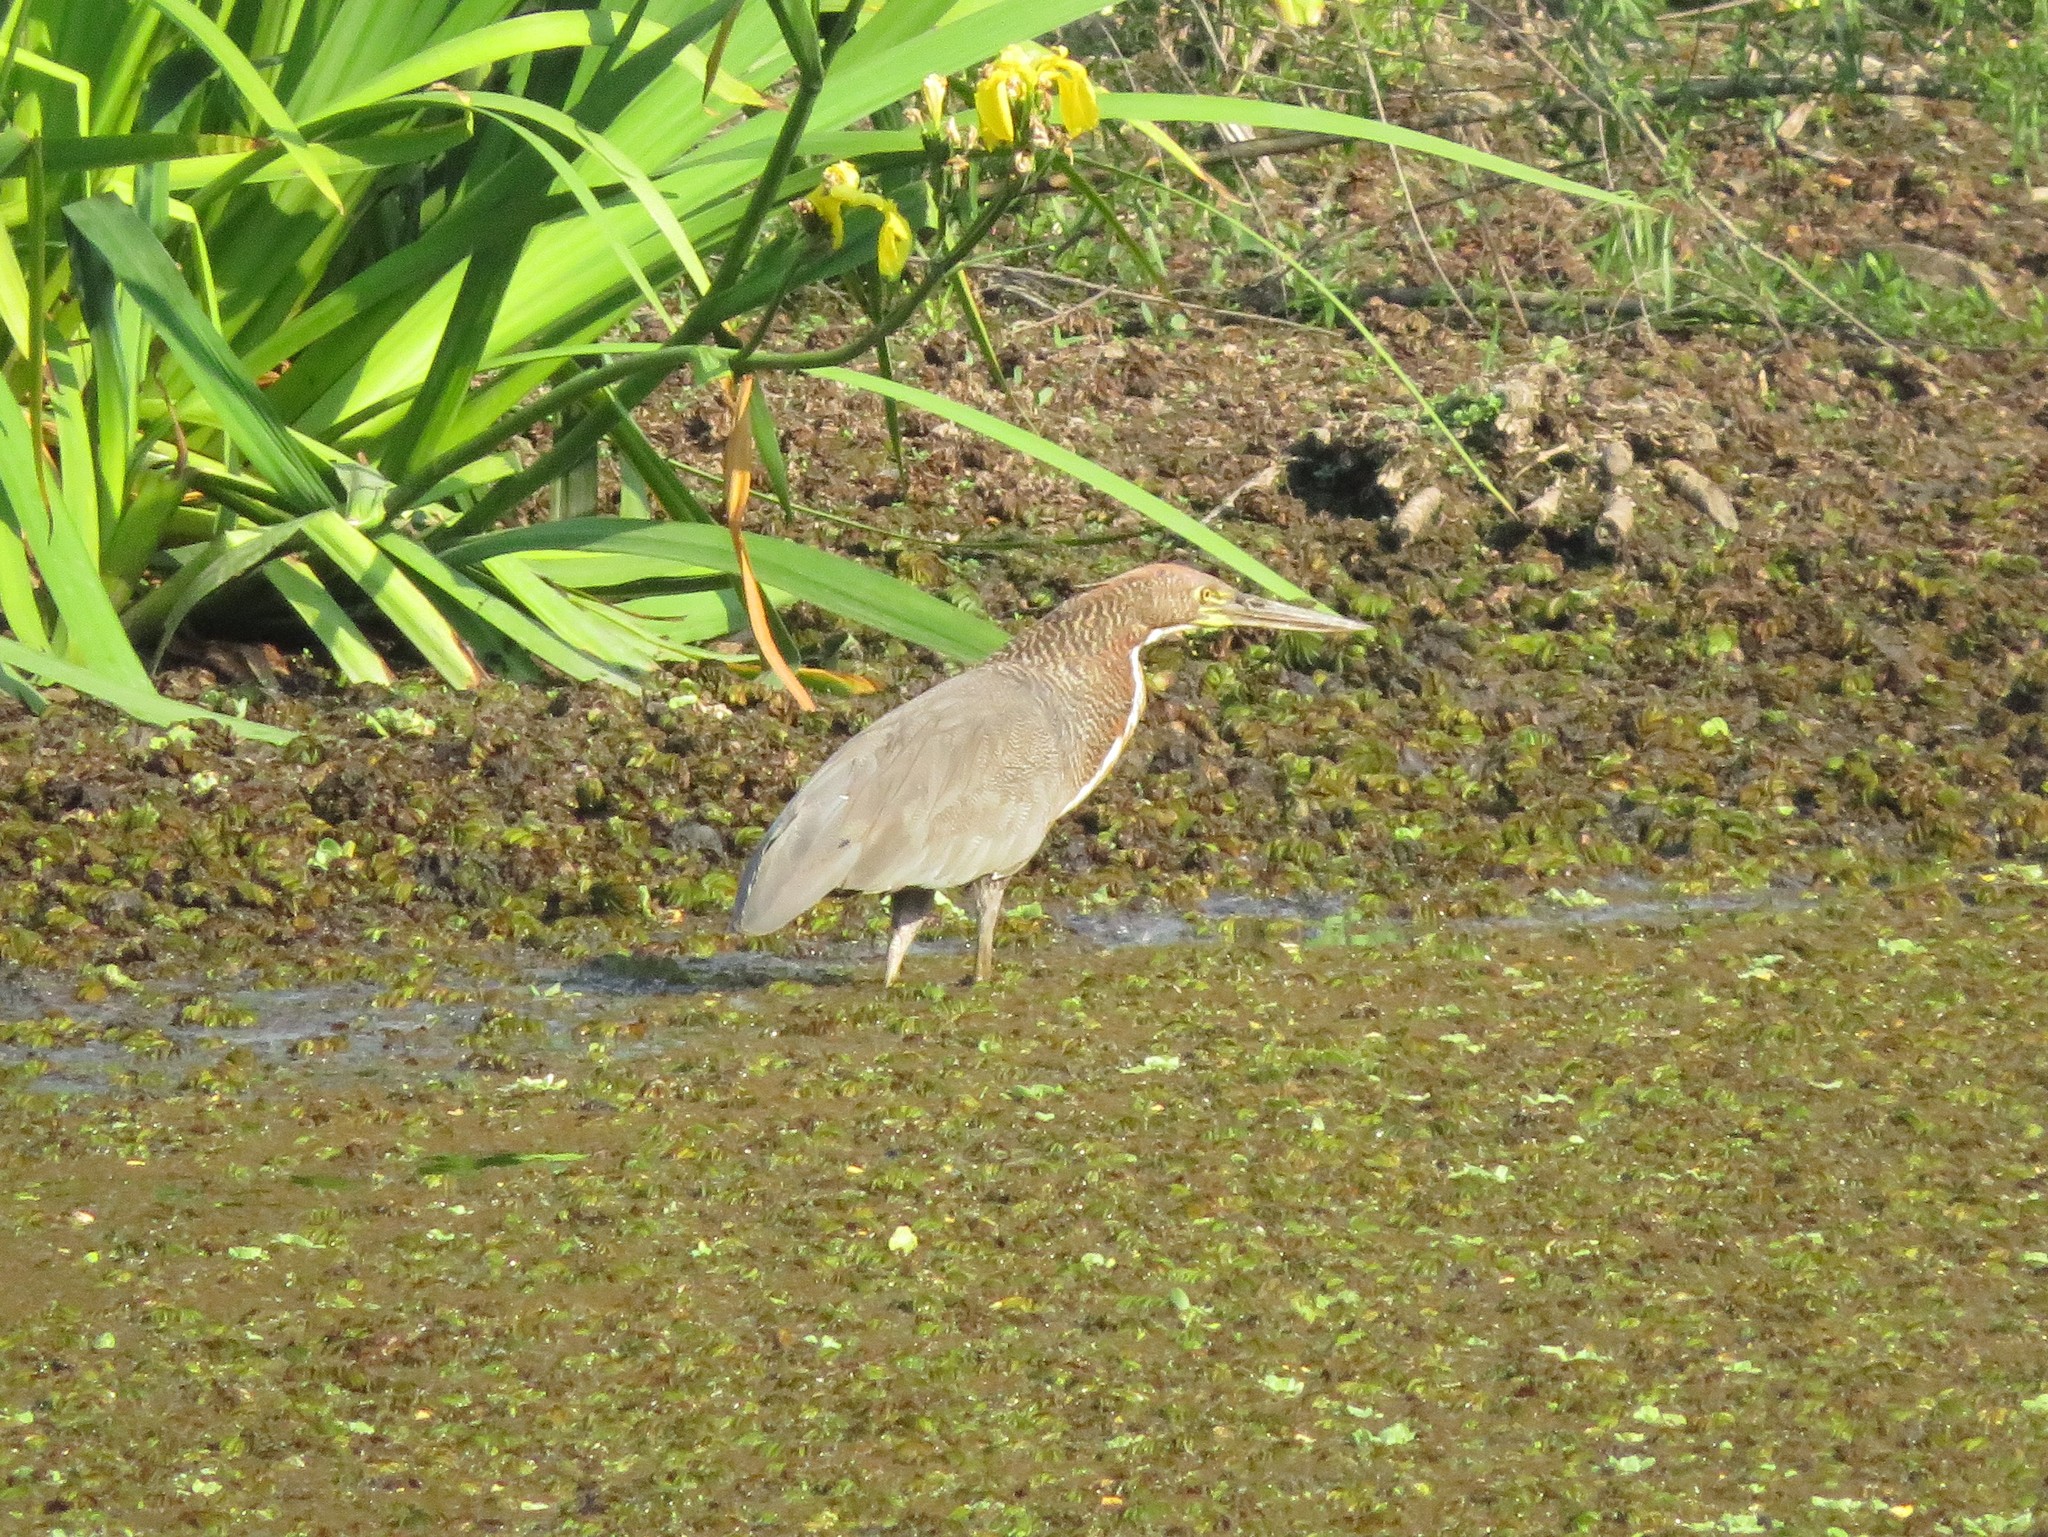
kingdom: Animalia
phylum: Chordata
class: Aves
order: Pelecaniformes
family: Ardeidae
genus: Tigrisoma
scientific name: Tigrisoma lineatum
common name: Rufescent tiger-heron
